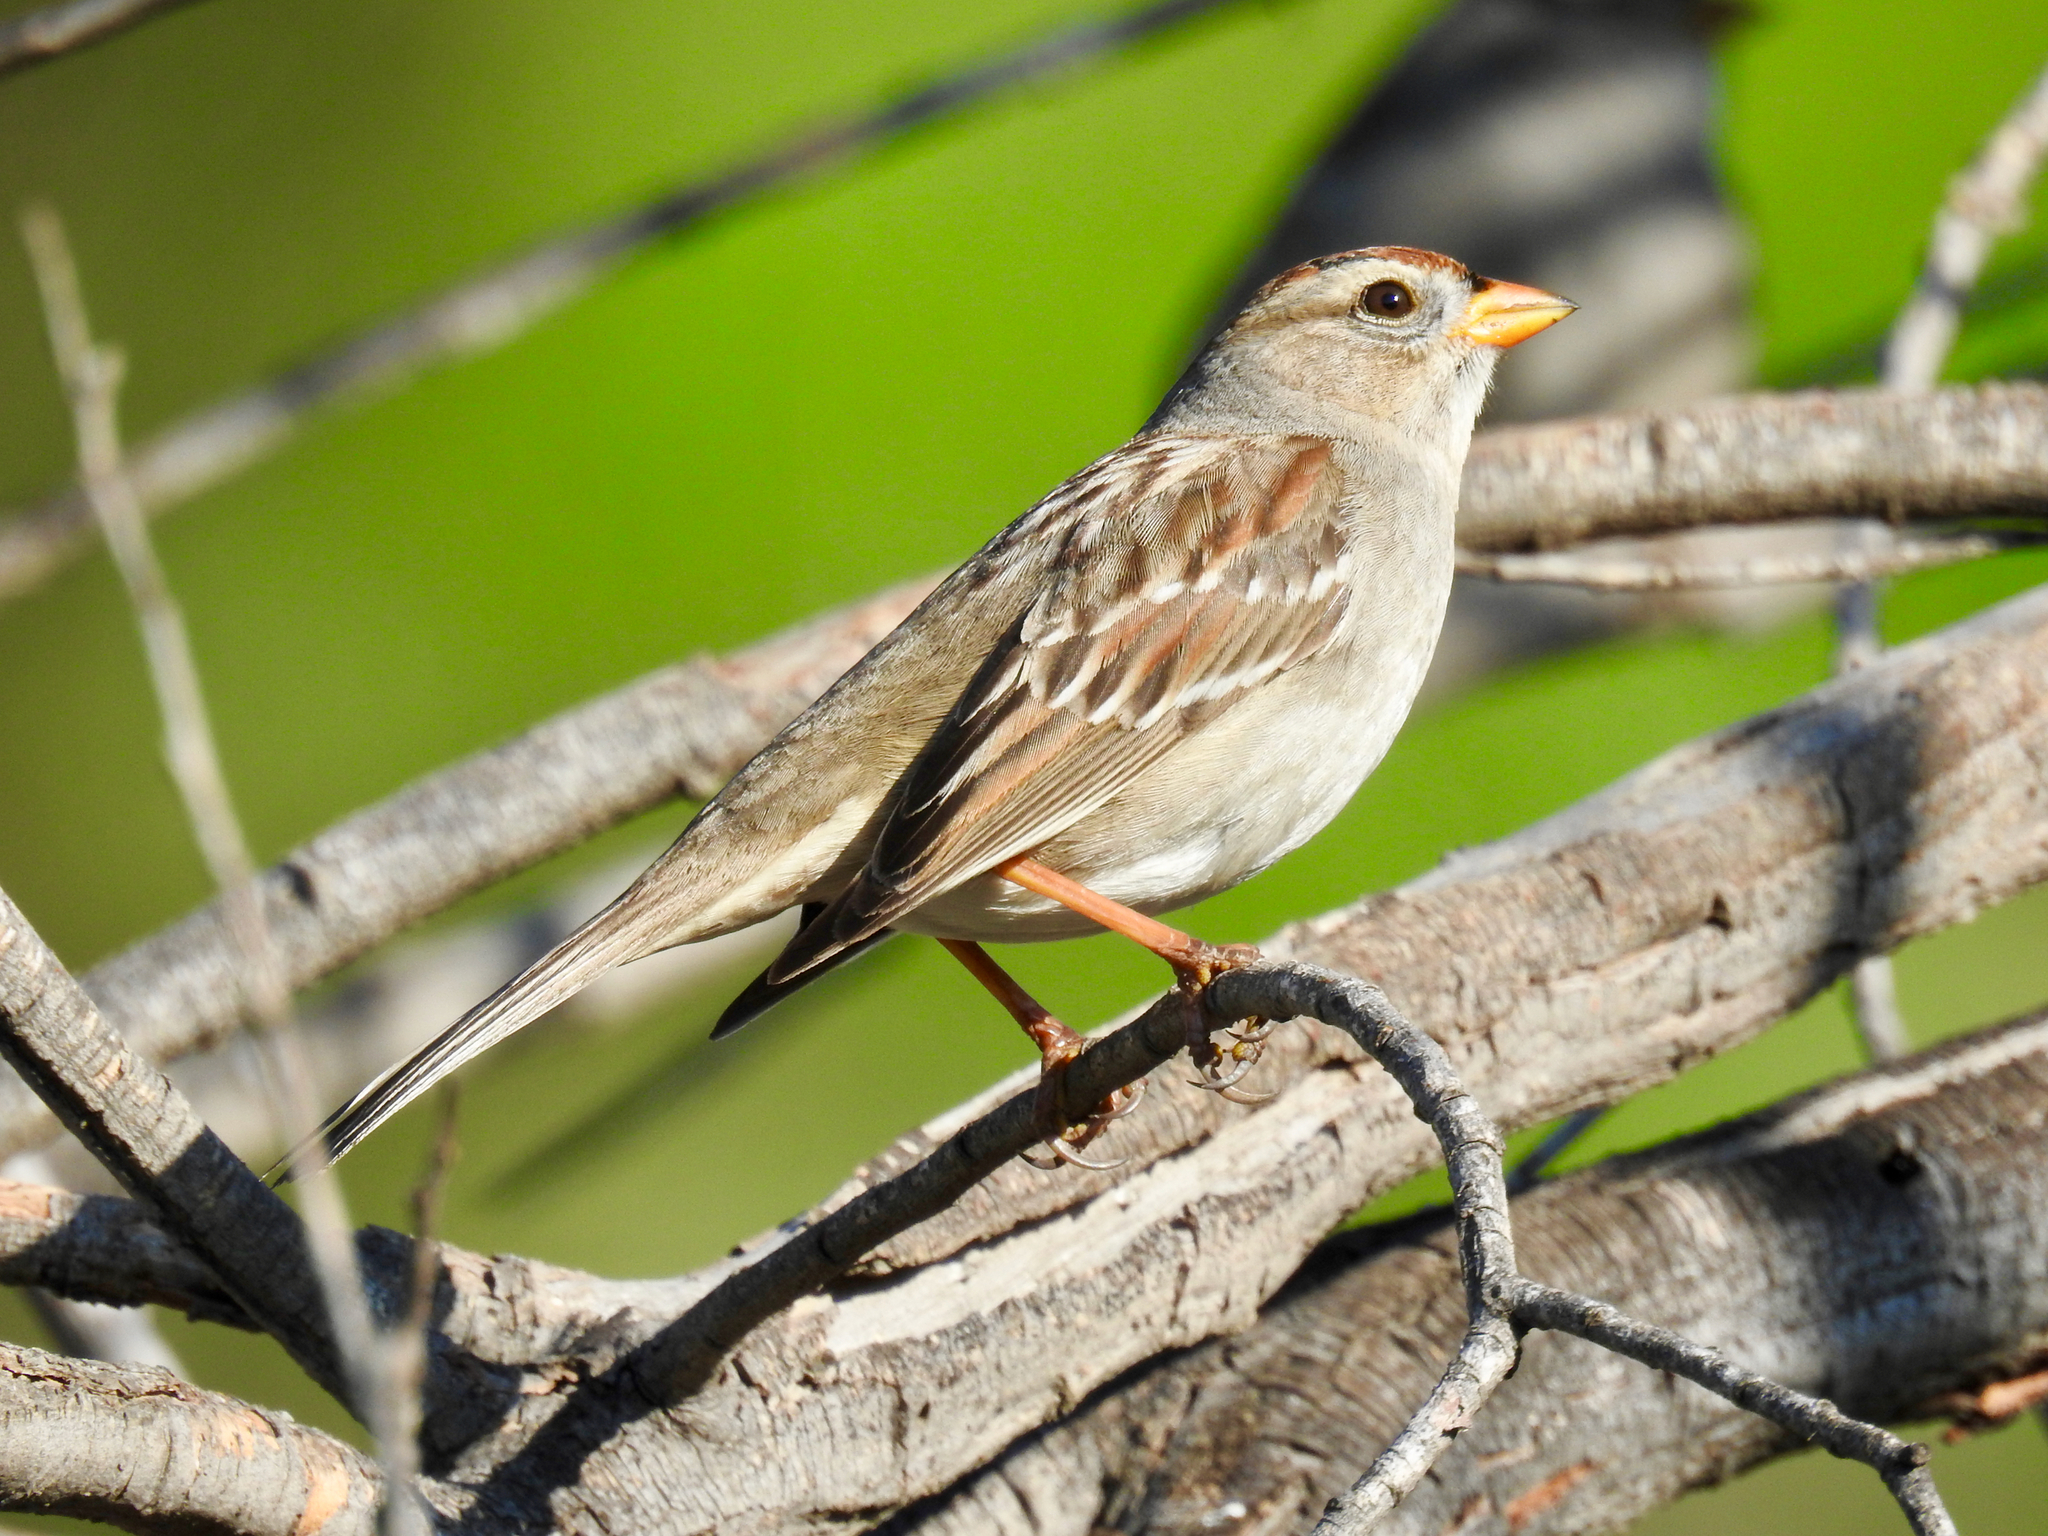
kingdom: Animalia
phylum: Chordata
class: Aves
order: Passeriformes
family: Passerellidae
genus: Zonotrichia
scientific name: Zonotrichia leucophrys
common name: White-crowned sparrow
